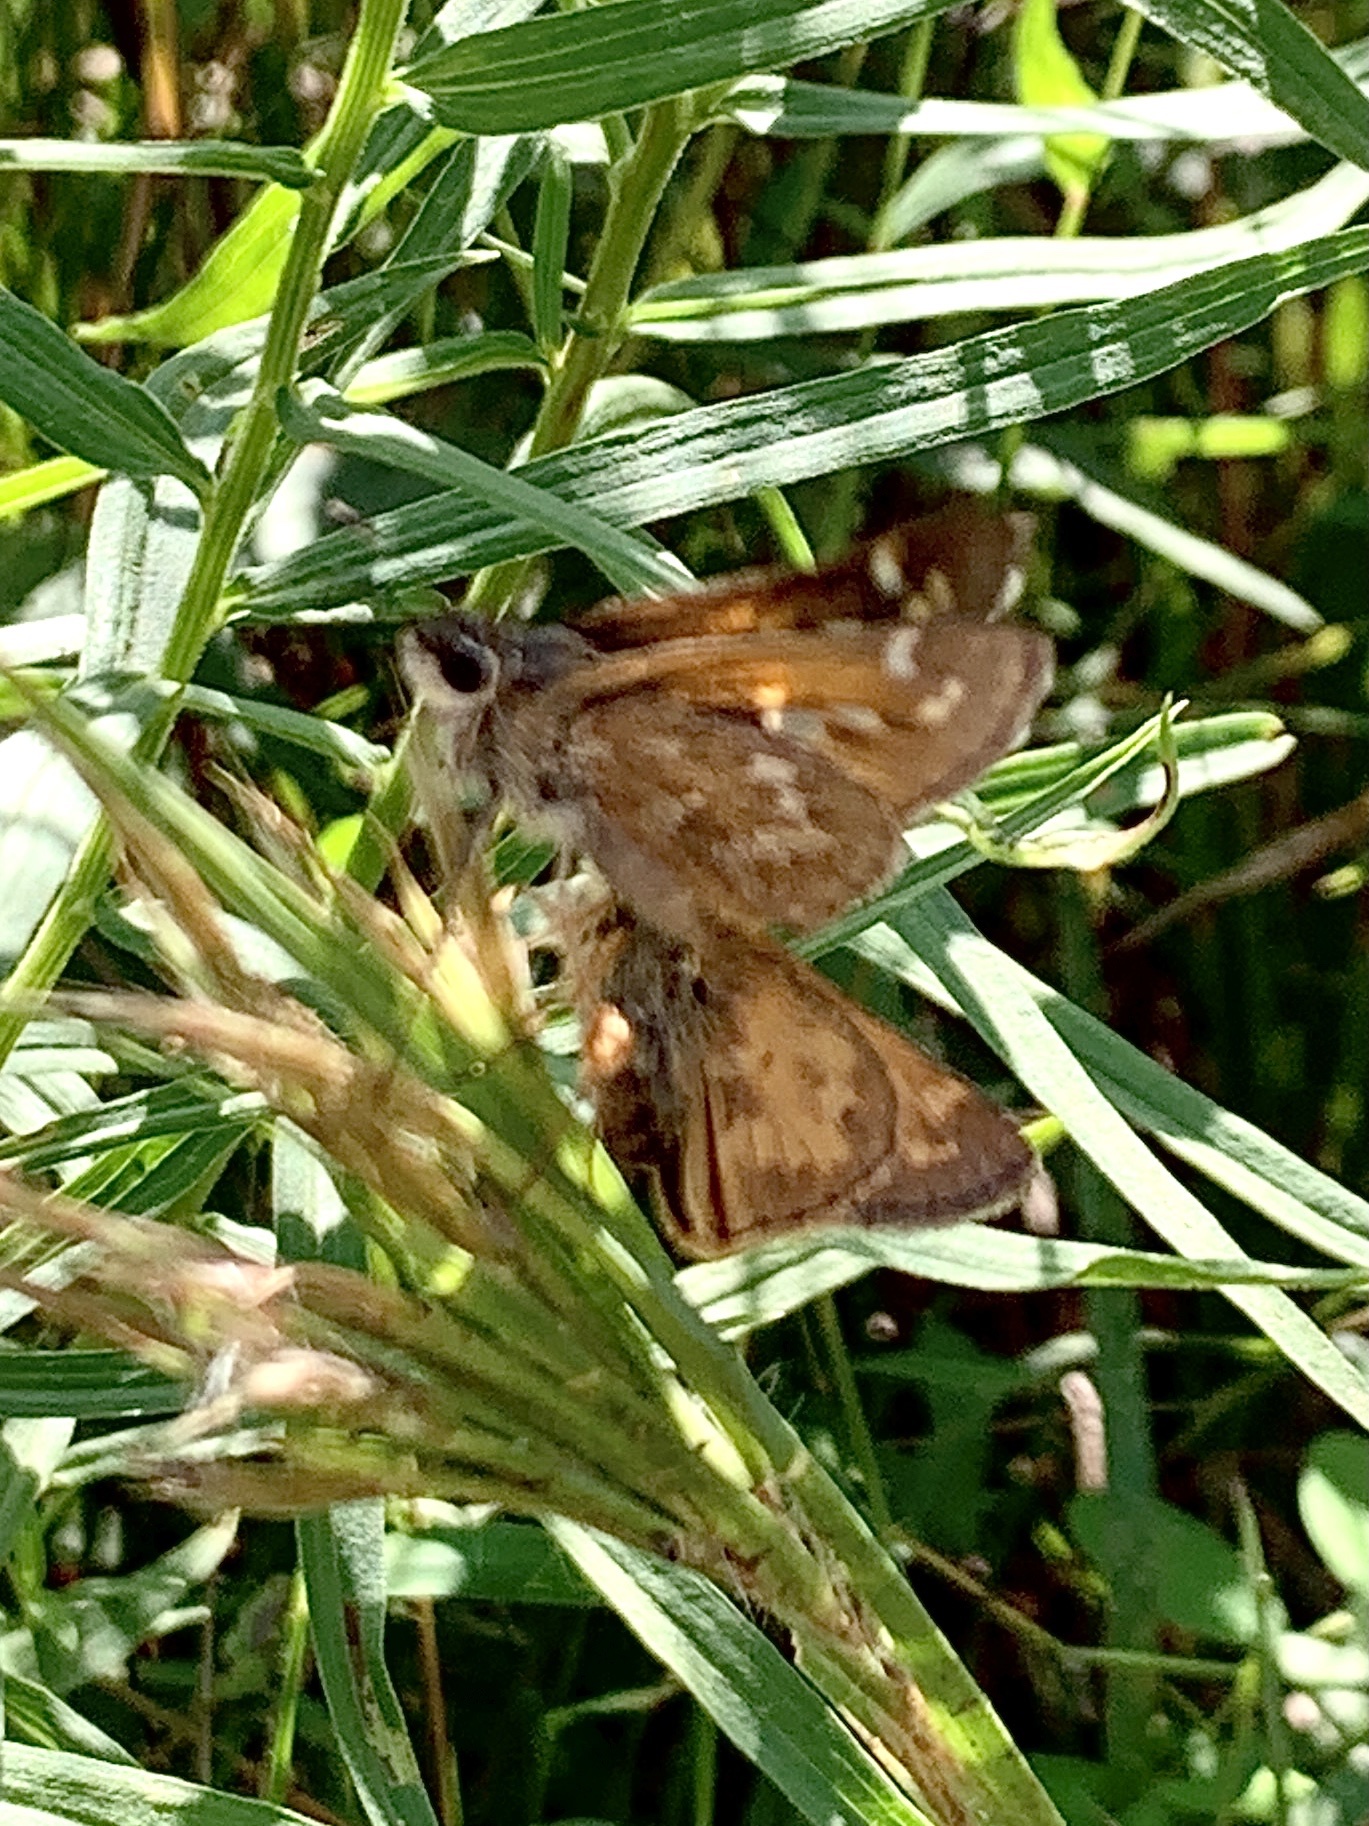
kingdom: Animalia
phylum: Arthropoda
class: Insecta
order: Lepidoptera
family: Hesperiidae
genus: Atalopedes
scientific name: Atalopedes
